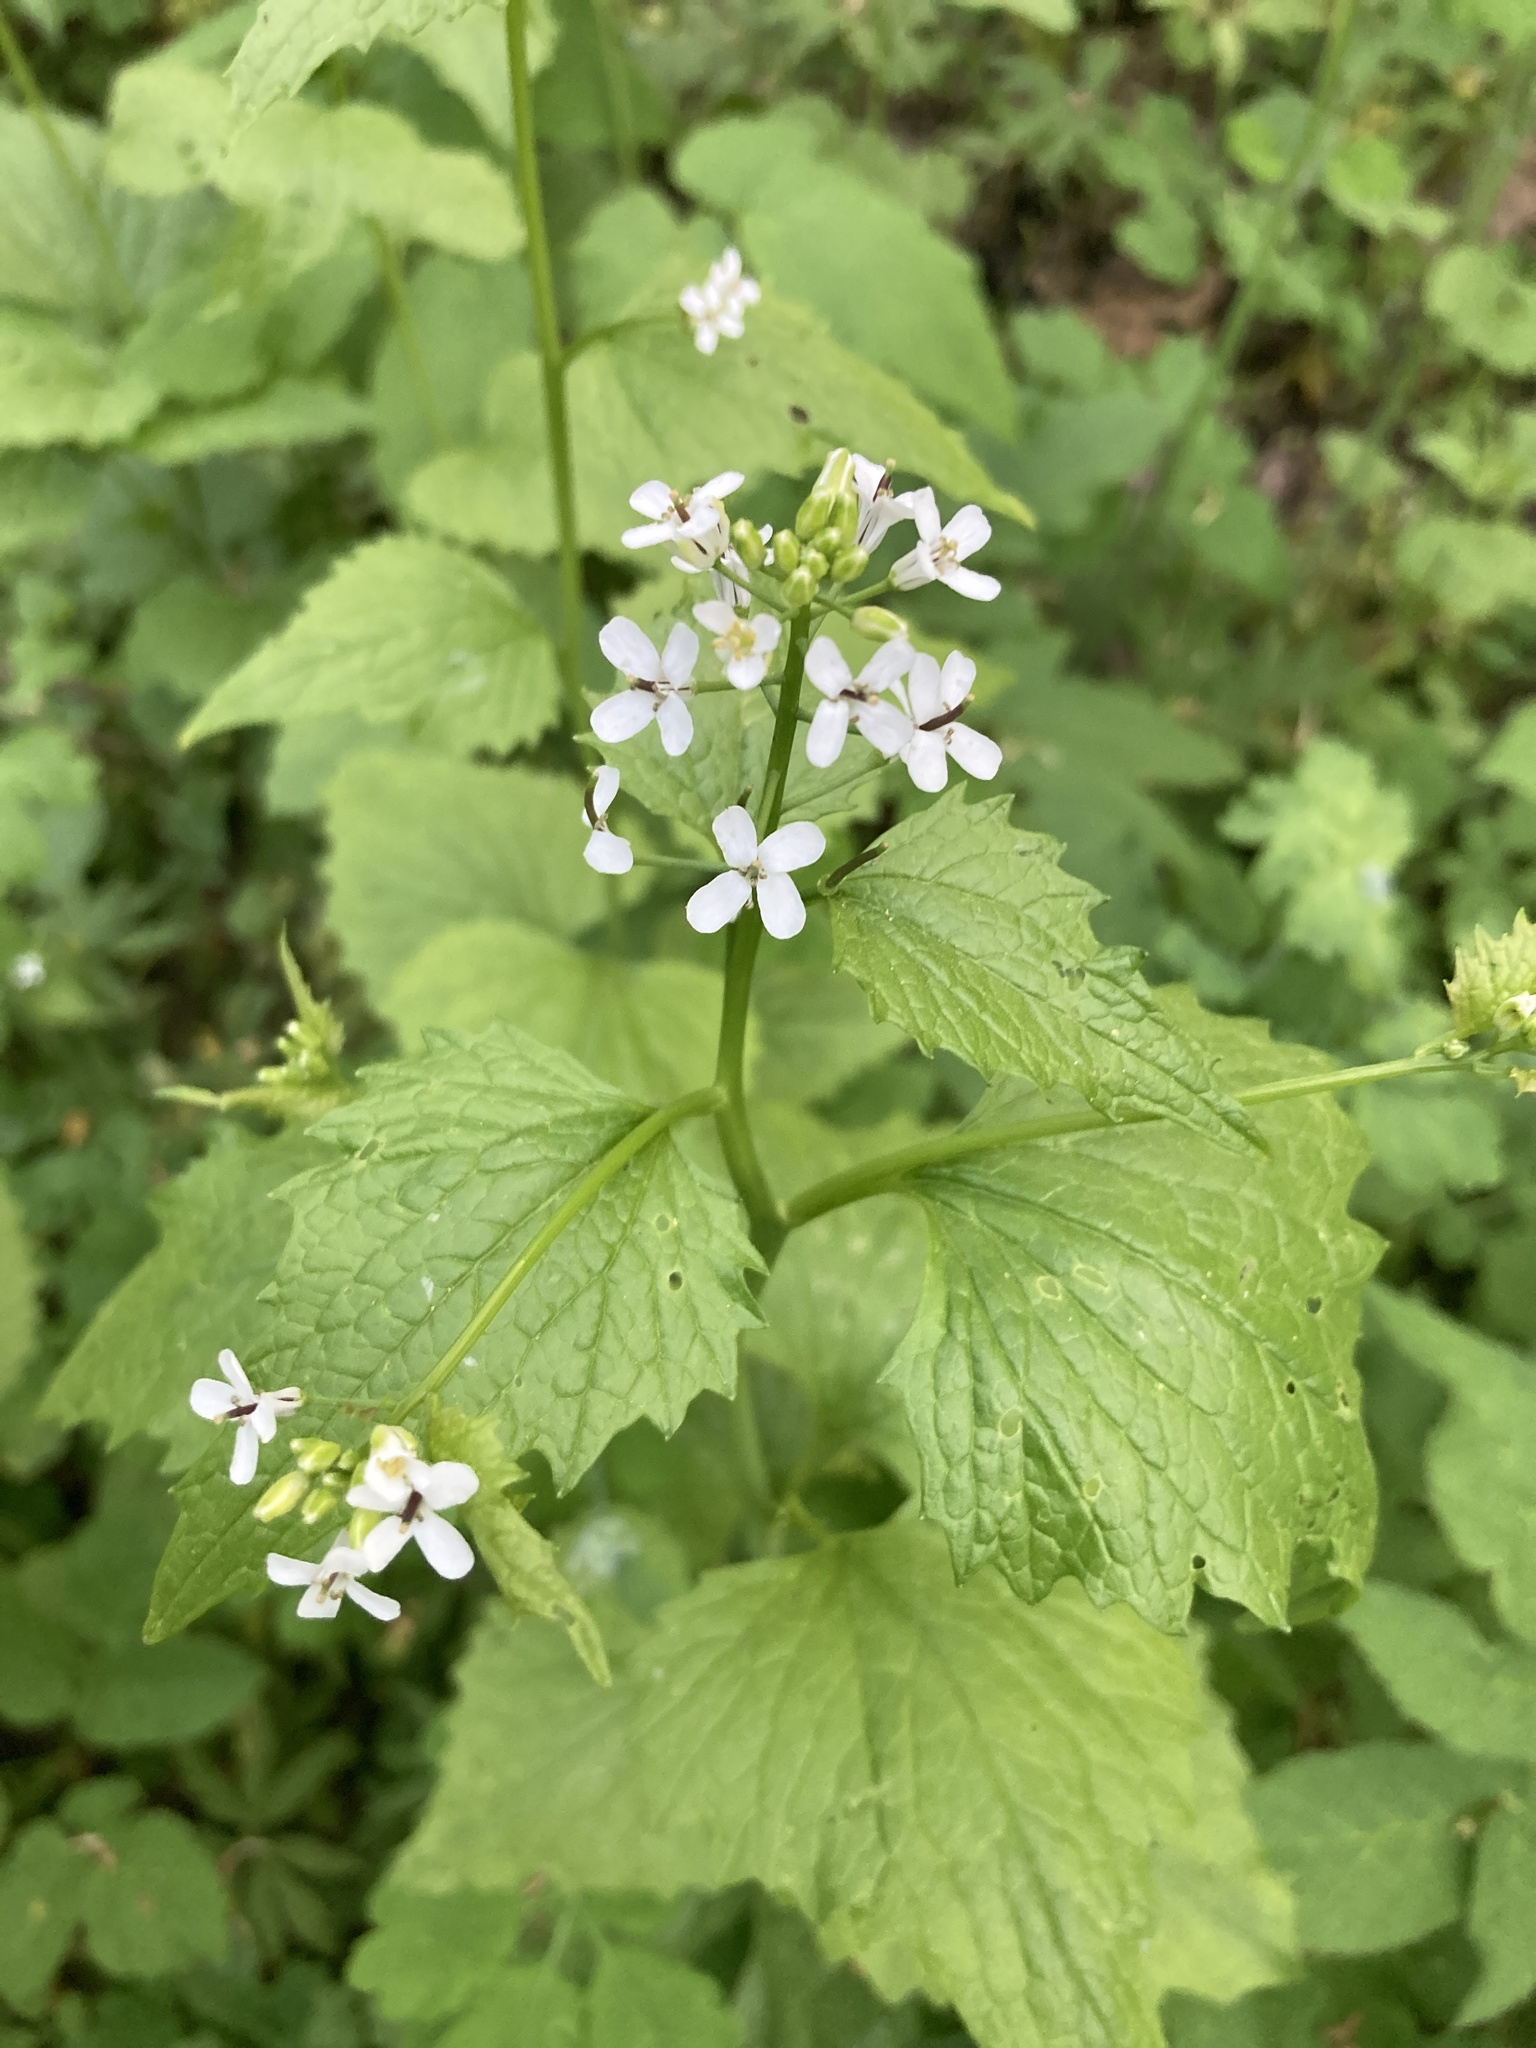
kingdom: Plantae
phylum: Tracheophyta
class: Magnoliopsida
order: Brassicales
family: Brassicaceae
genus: Alliaria
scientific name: Alliaria petiolata
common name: Garlic mustard
